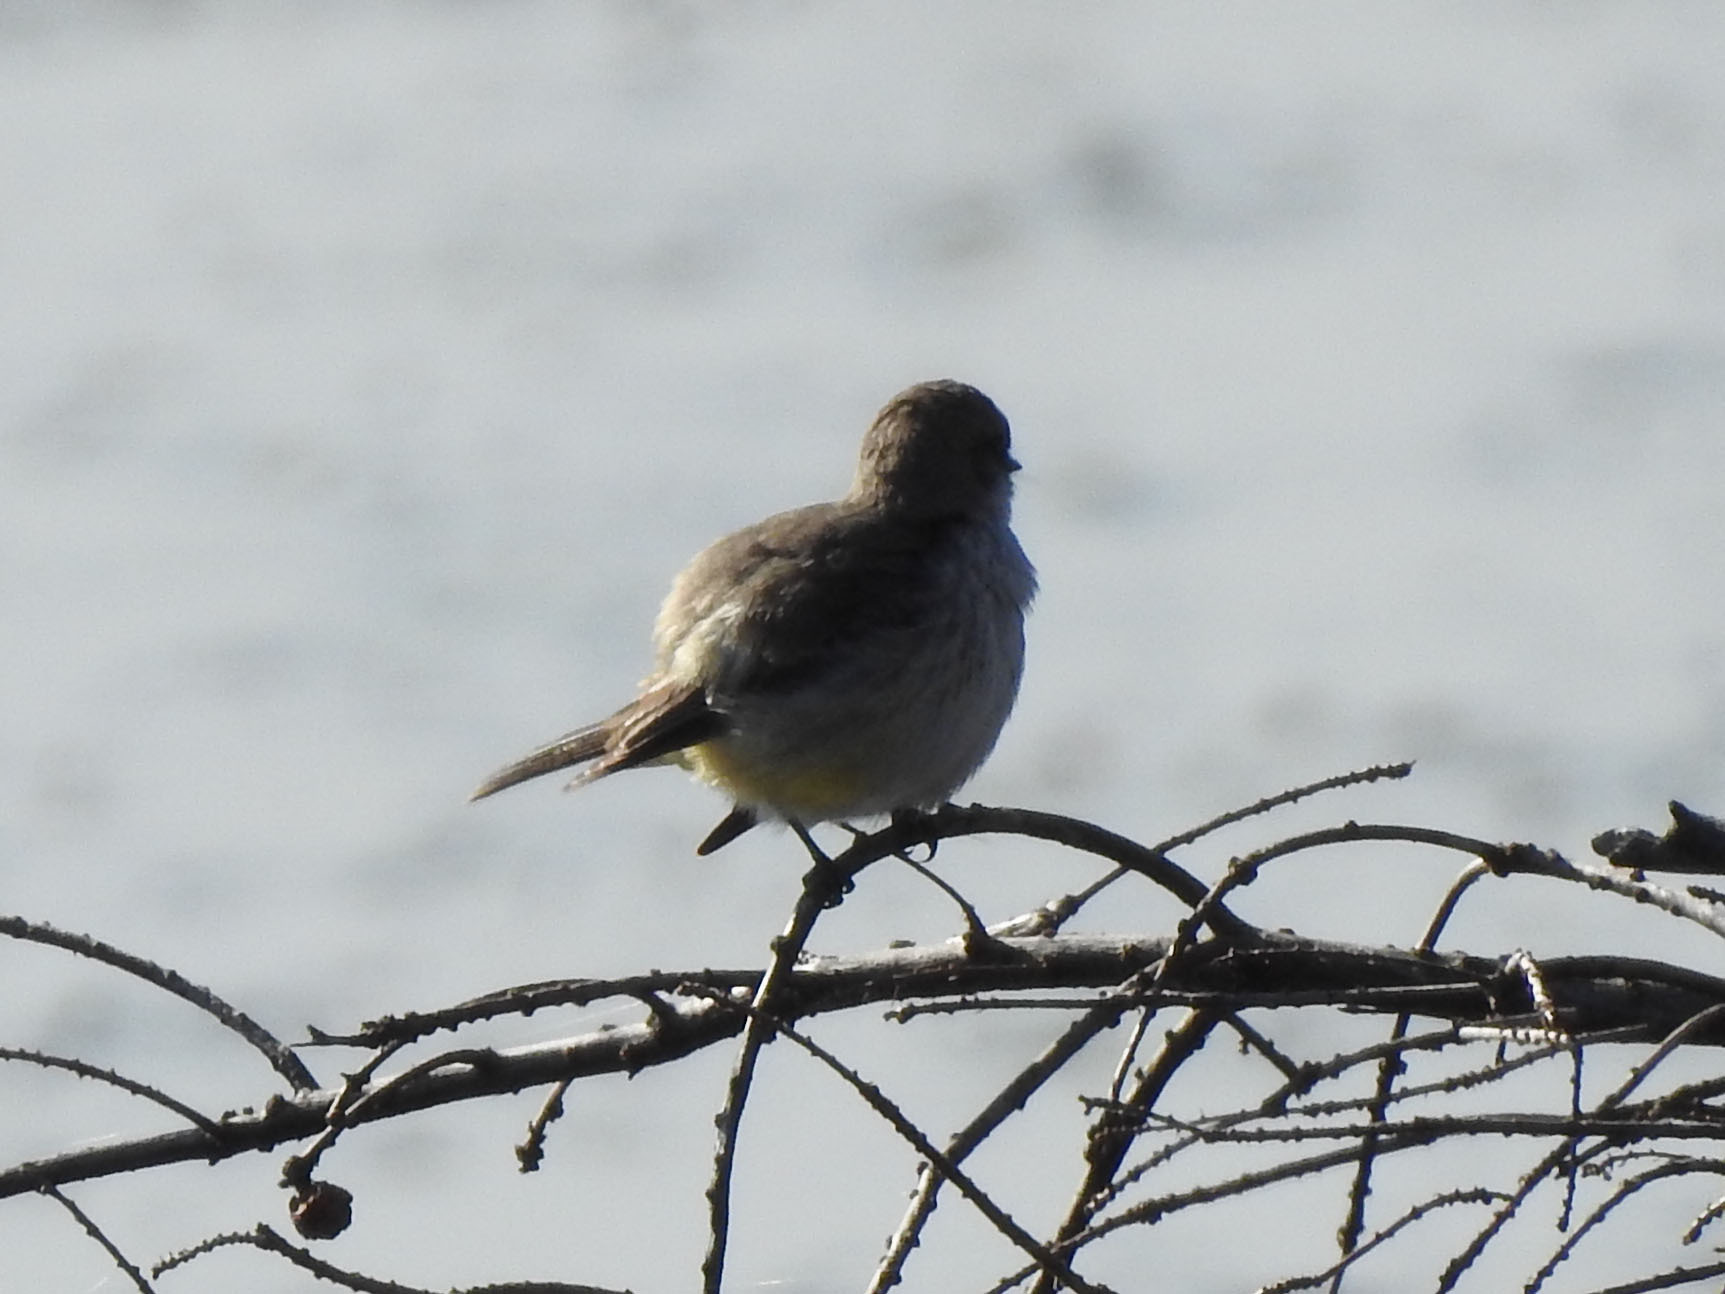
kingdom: Animalia
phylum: Chordata
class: Aves
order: Passeriformes
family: Tyrannidae
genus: Sayornis
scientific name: Sayornis phoebe
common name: Eastern phoebe
